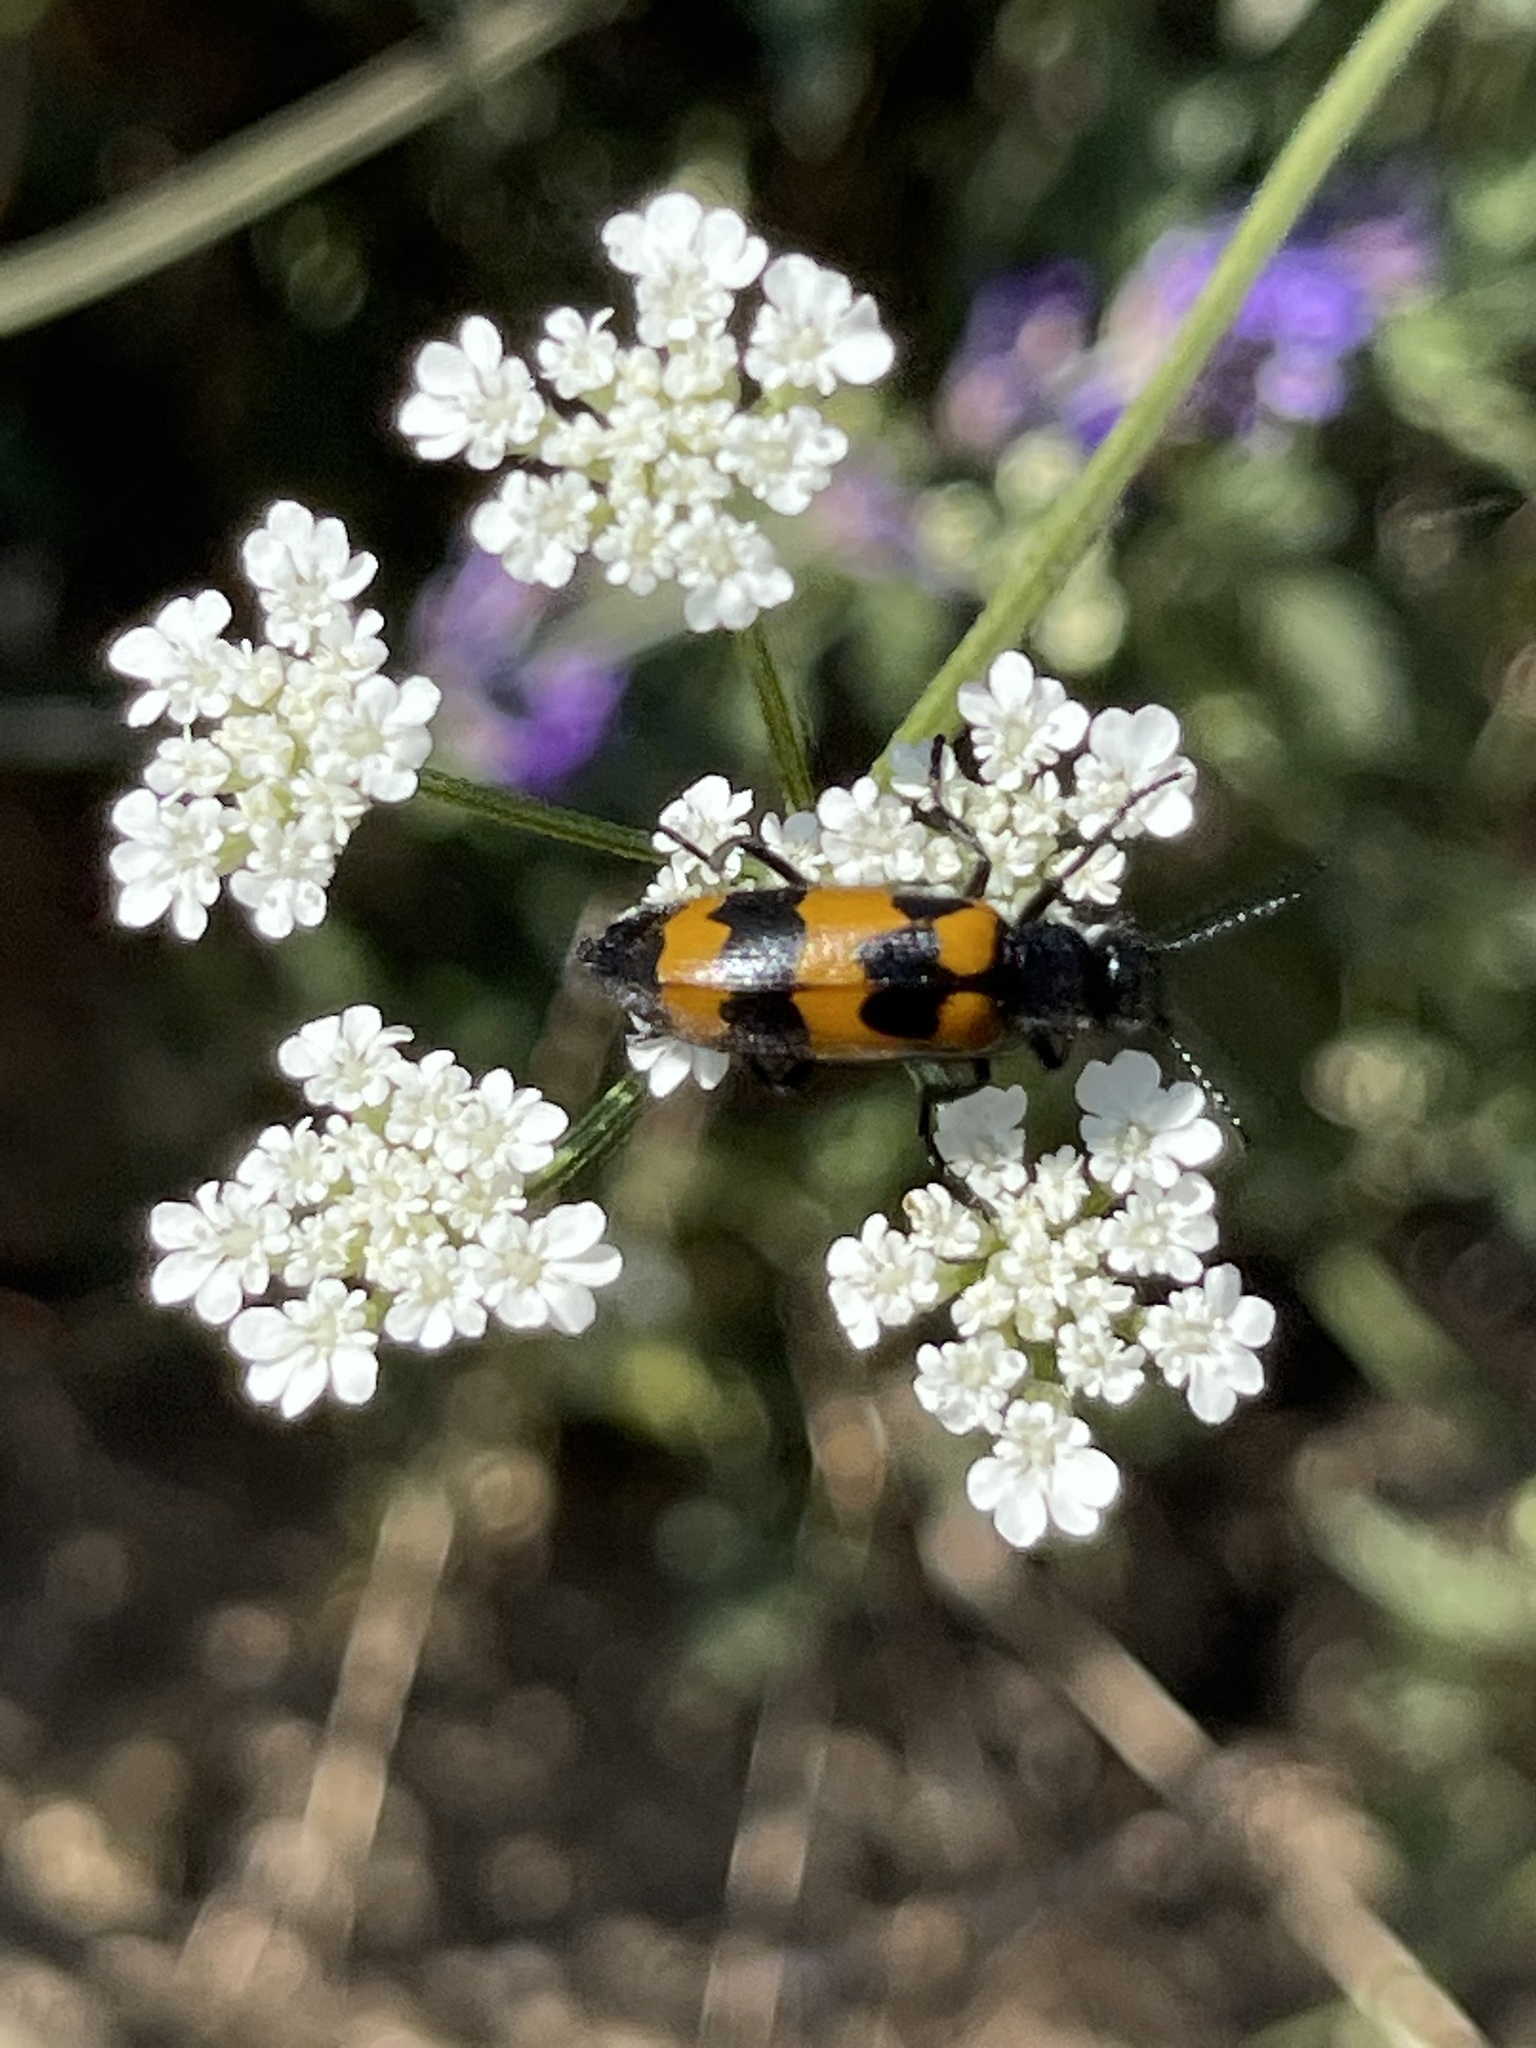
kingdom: Animalia
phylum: Arthropoda
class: Insecta
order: Coleoptera
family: Meloidae
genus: Mylabris
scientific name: Mylabris variabilis
